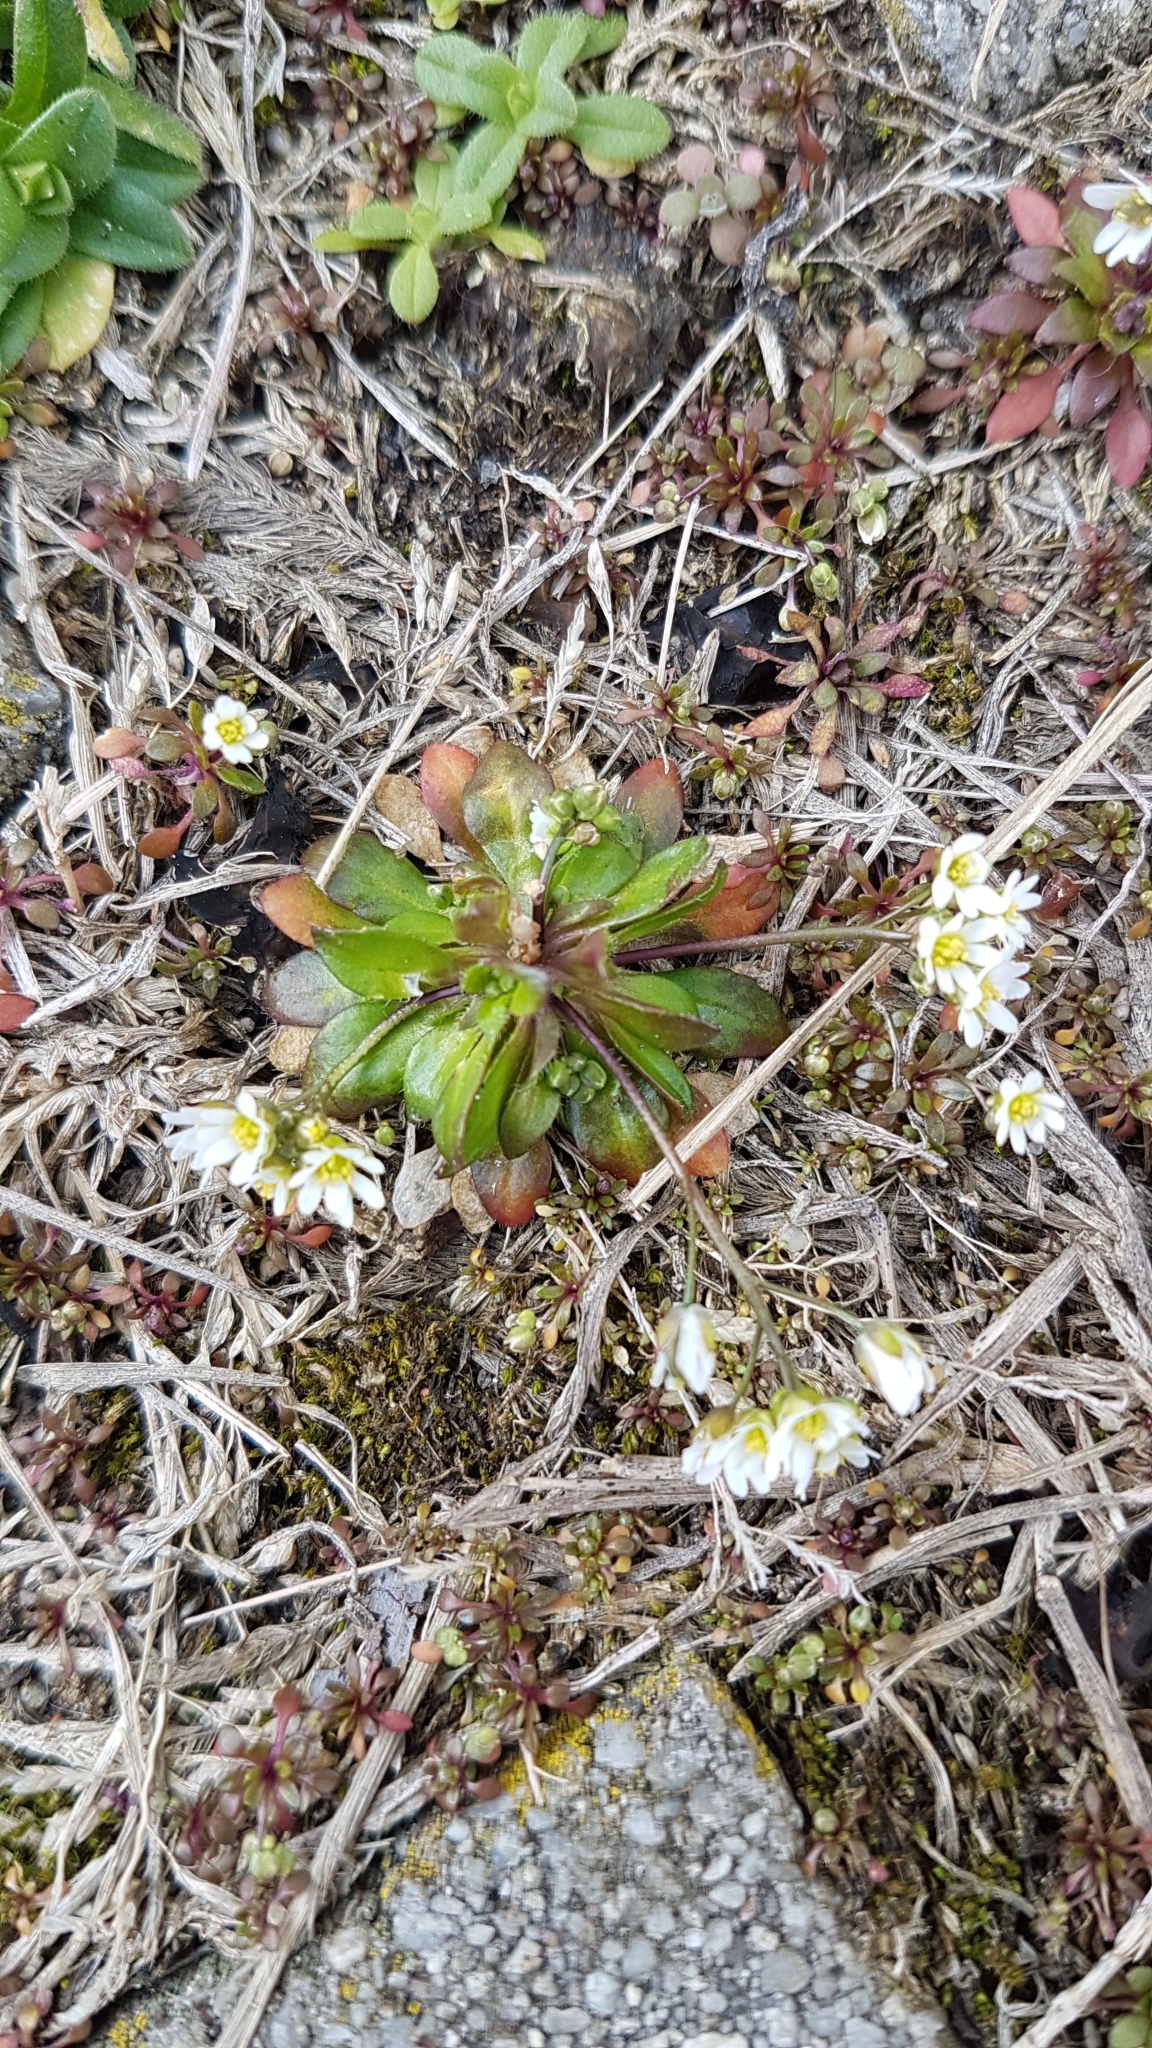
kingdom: Plantae
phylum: Tracheophyta
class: Magnoliopsida
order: Brassicales
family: Brassicaceae
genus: Draba
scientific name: Draba verna
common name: Spring draba
